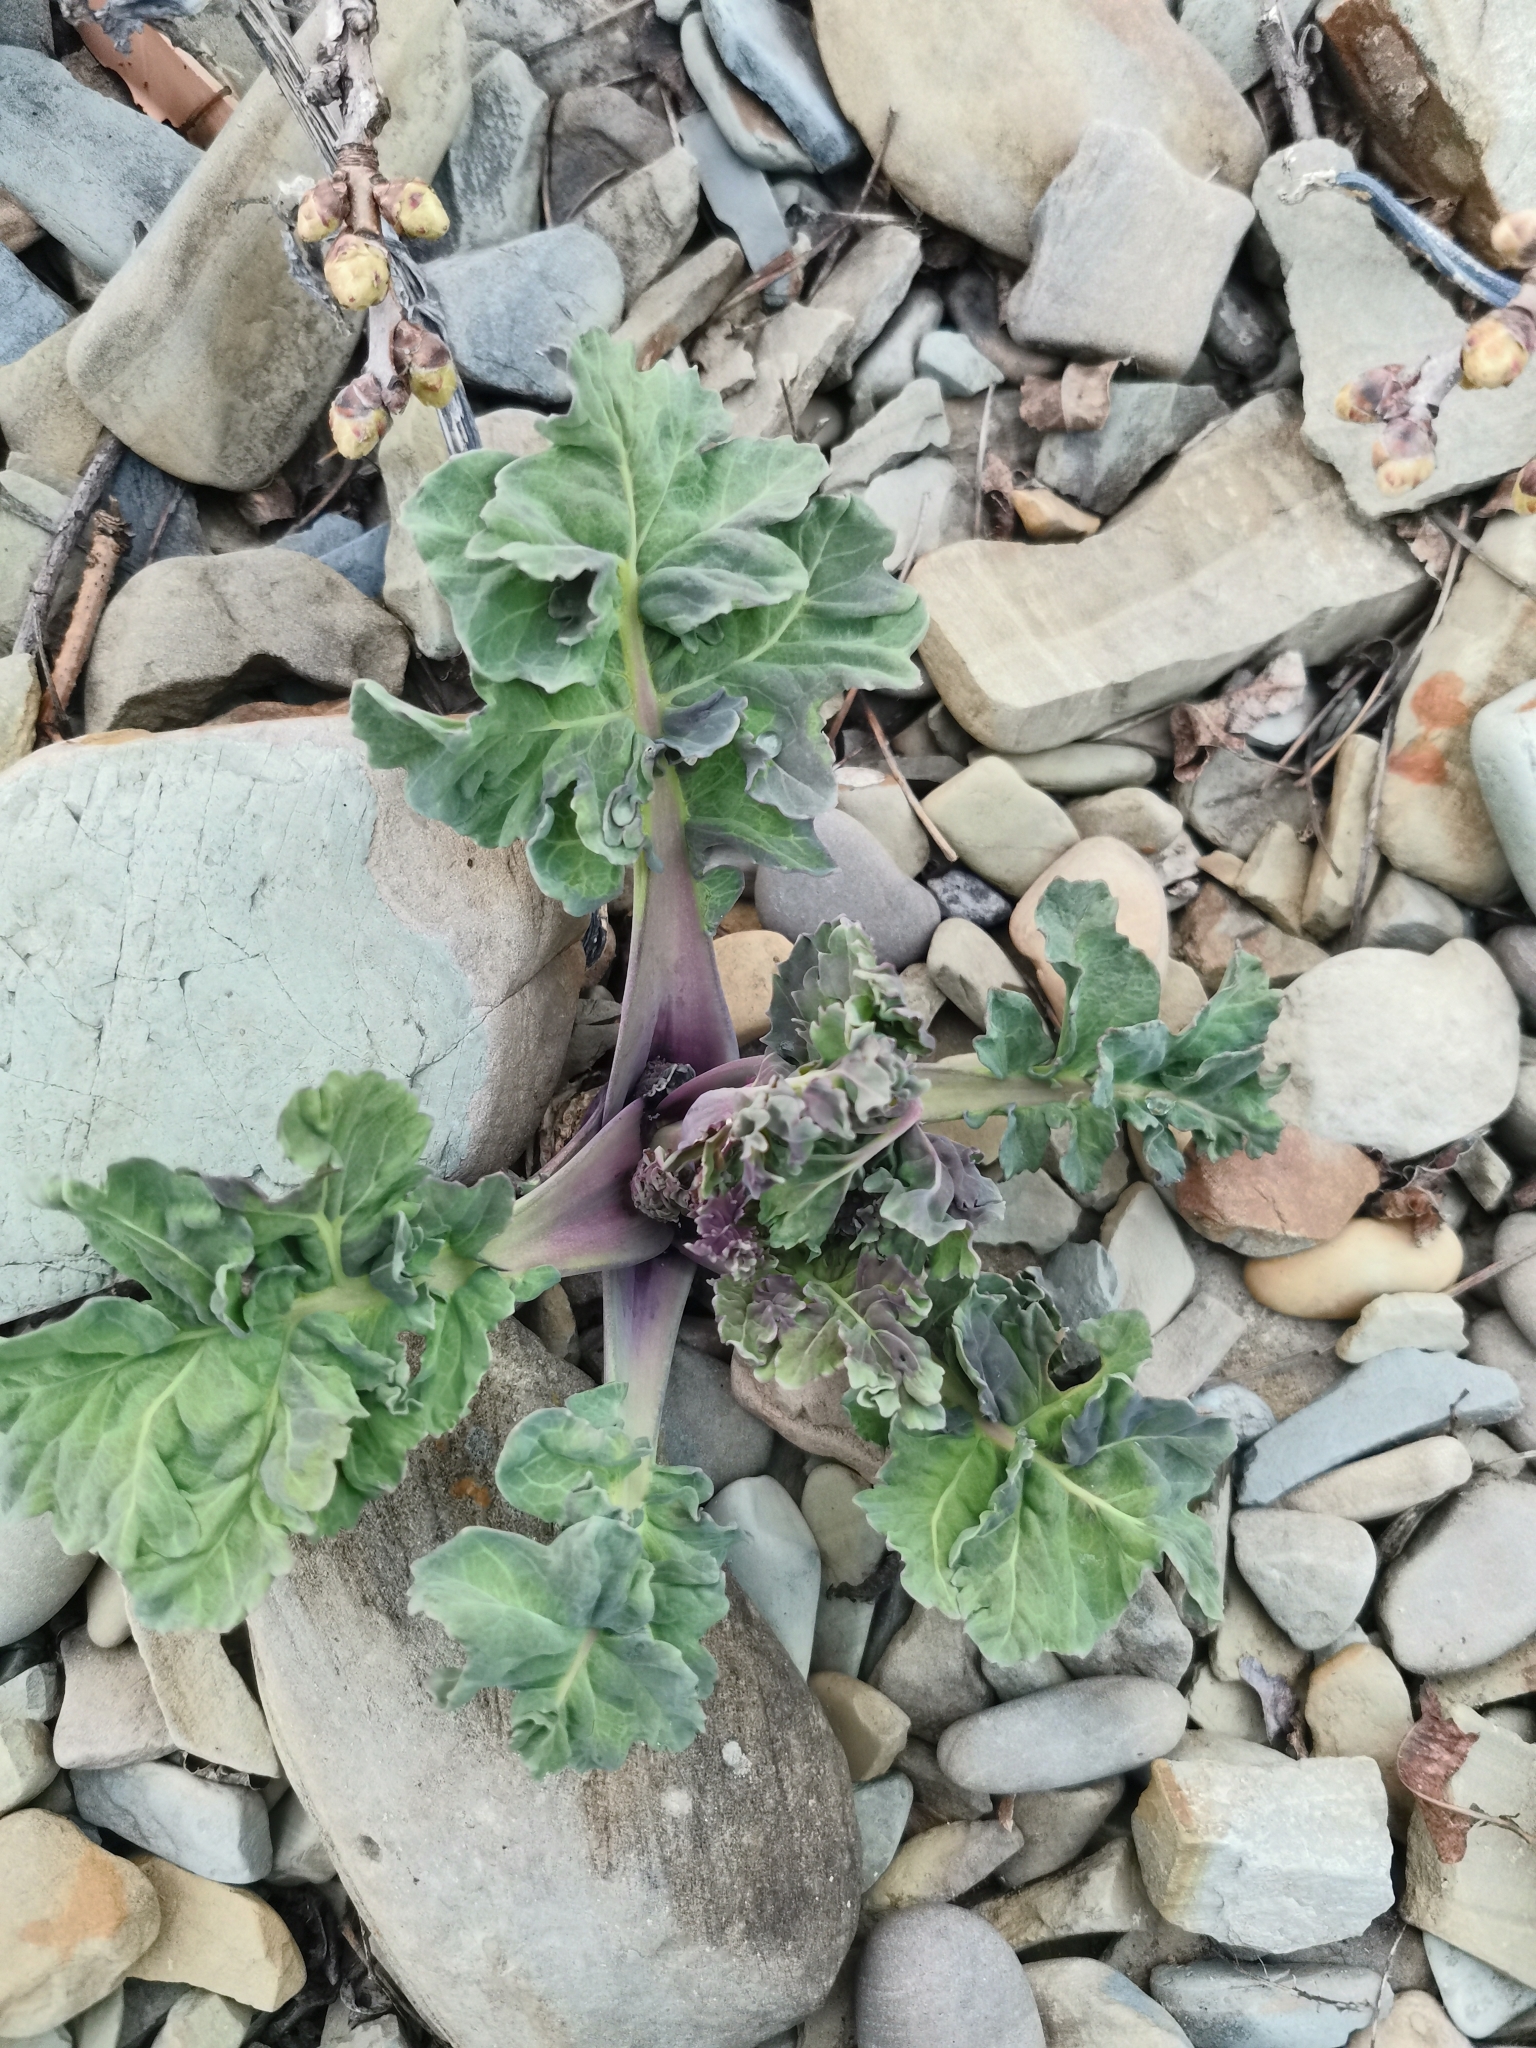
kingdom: Plantae
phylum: Tracheophyta
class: Magnoliopsida
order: Brassicales
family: Brassicaceae
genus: Crambe
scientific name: Crambe maritima
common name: Sea-kale
